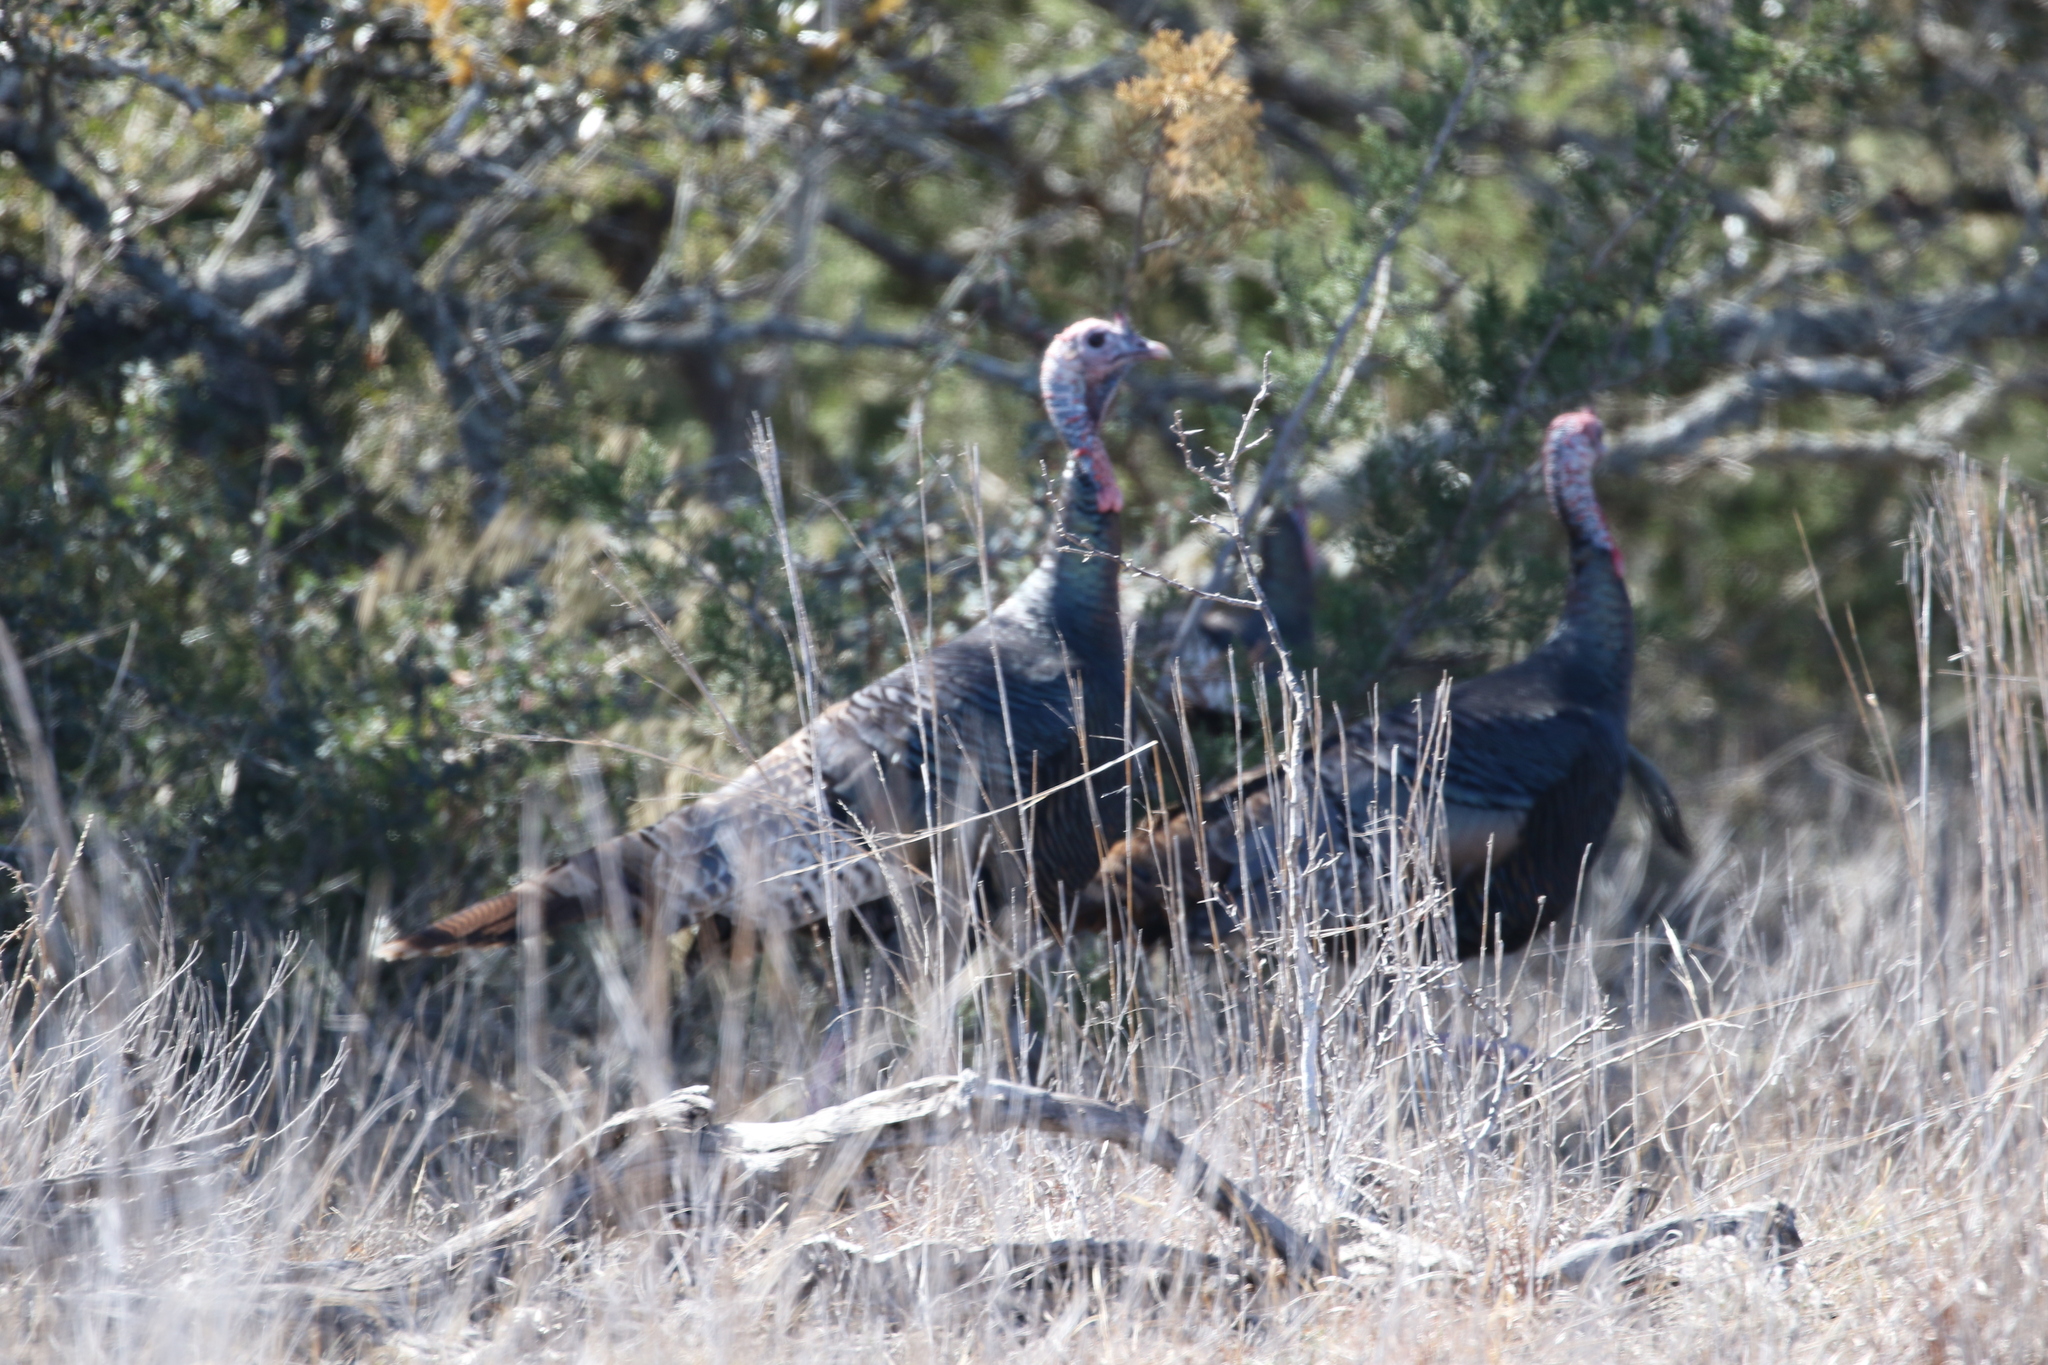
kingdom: Animalia
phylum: Chordata
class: Aves
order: Galliformes
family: Phasianidae
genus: Meleagris
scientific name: Meleagris gallopavo
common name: Wild turkey
